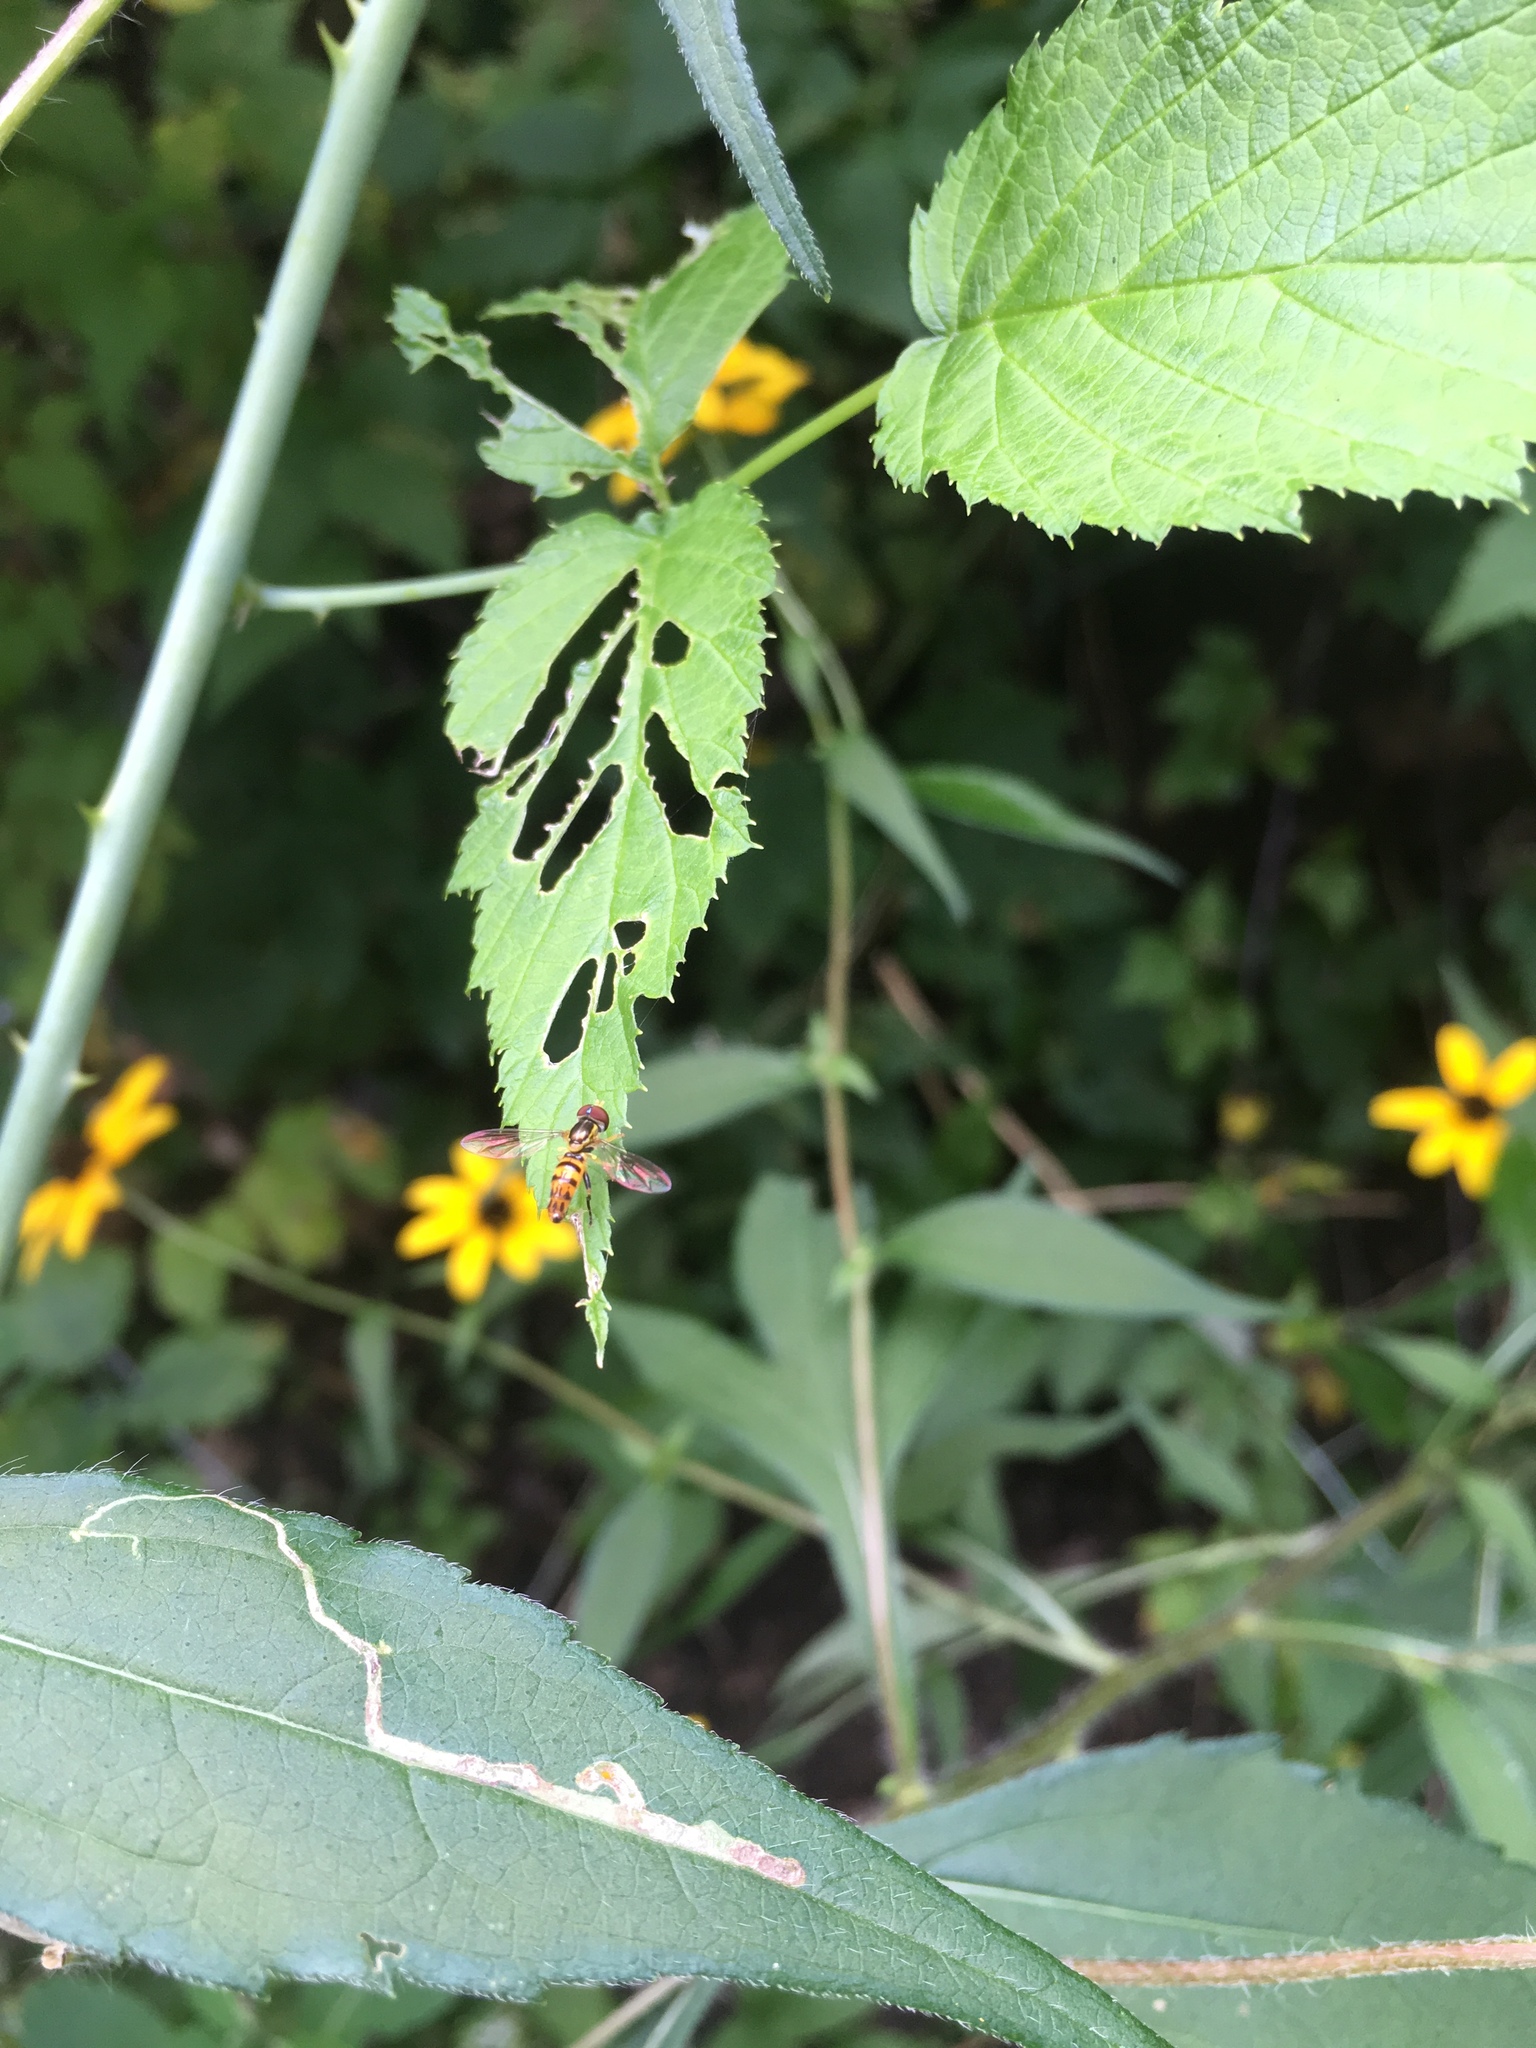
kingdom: Animalia
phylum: Arthropoda
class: Insecta
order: Diptera
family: Syrphidae
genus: Toxomerus
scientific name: Toxomerus geminatus
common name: Eastern calligrapher
